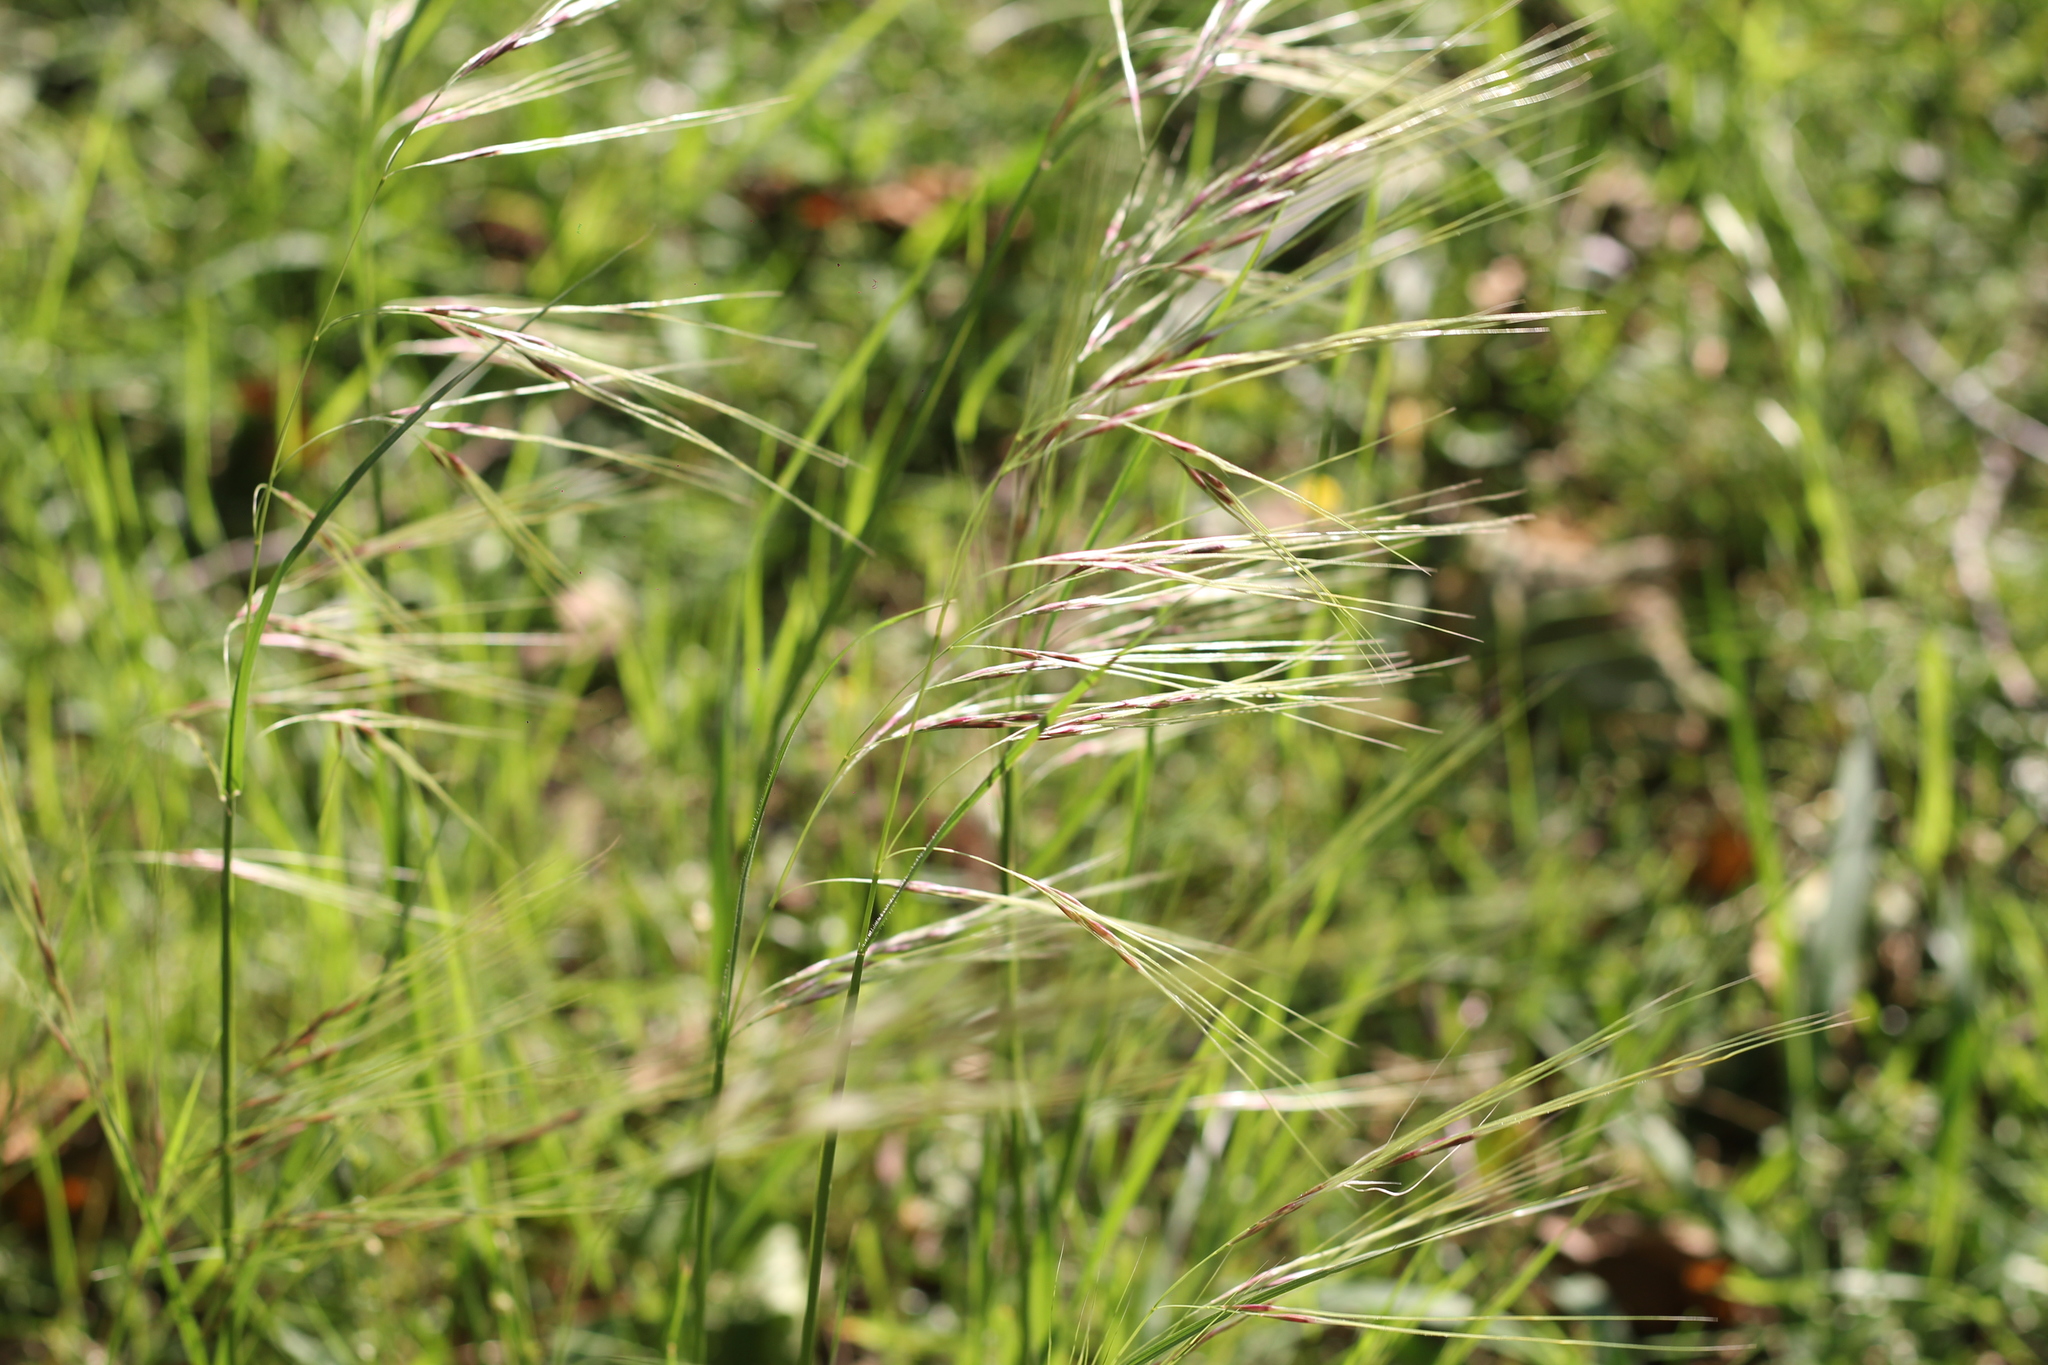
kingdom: Plantae
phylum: Tracheophyta
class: Liliopsida
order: Poales
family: Poaceae
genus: Nassella
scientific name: Nassella neesiana
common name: American needle-grass
